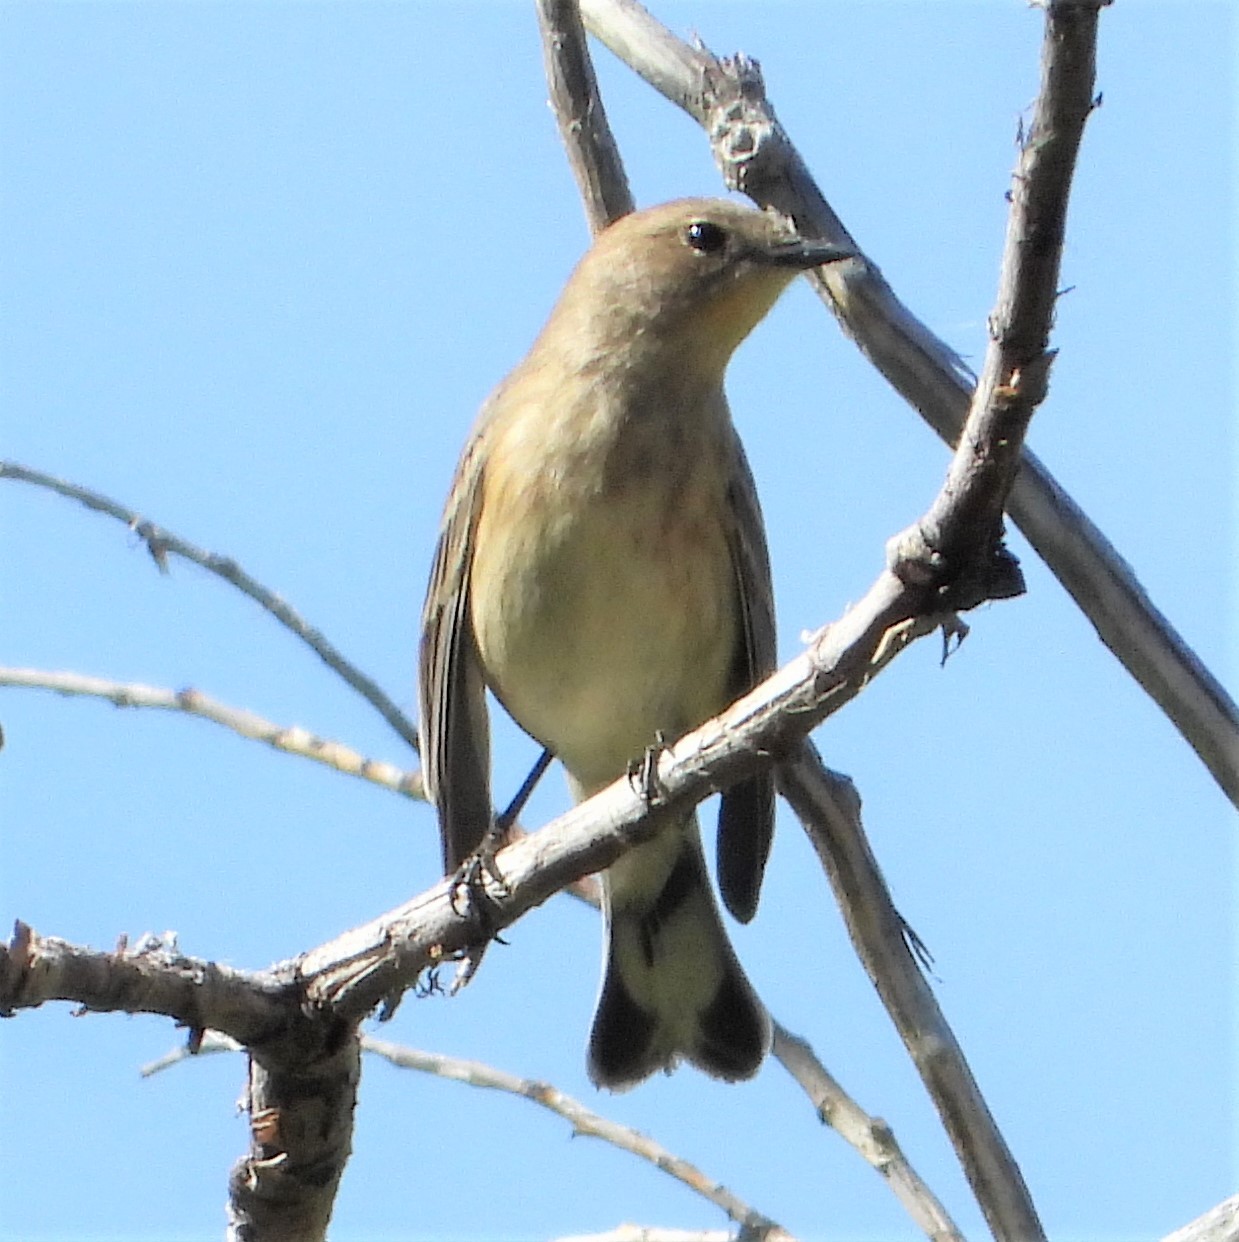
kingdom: Animalia
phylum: Chordata
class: Aves
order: Passeriformes
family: Parulidae
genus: Setophaga
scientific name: Setophaga coronata
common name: Myrtle warbler
